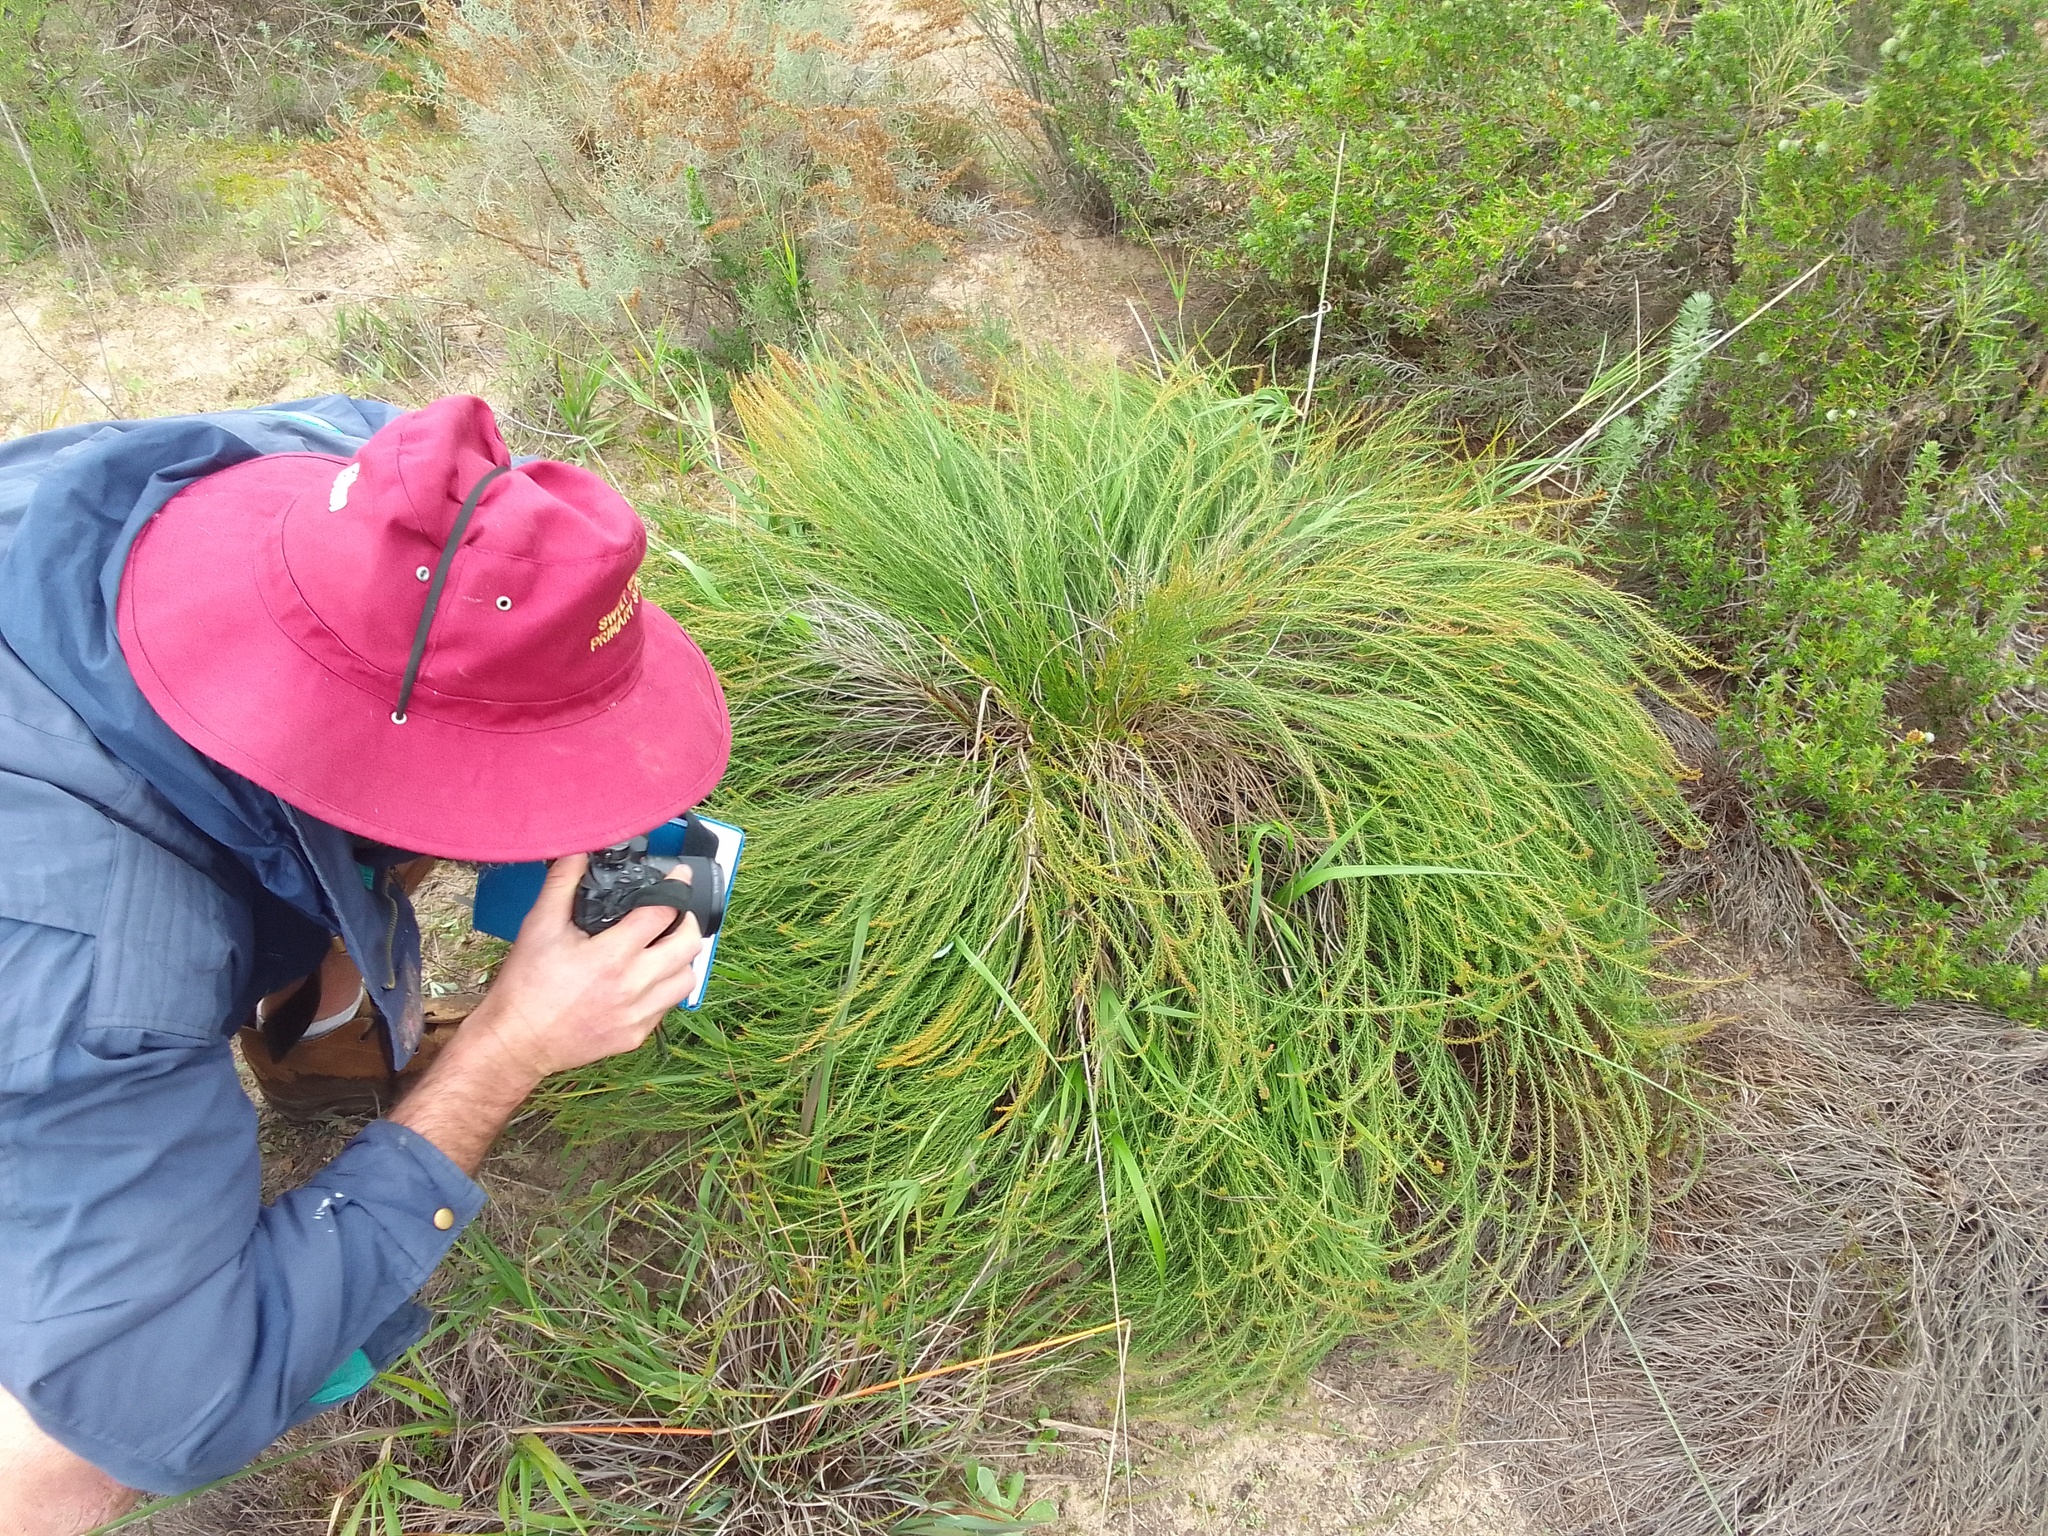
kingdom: Plantae
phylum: Tracheophyta
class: Magnoliopsida
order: Fabales
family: Fabaceae
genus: Rafnia
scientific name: Rafnia angulata
